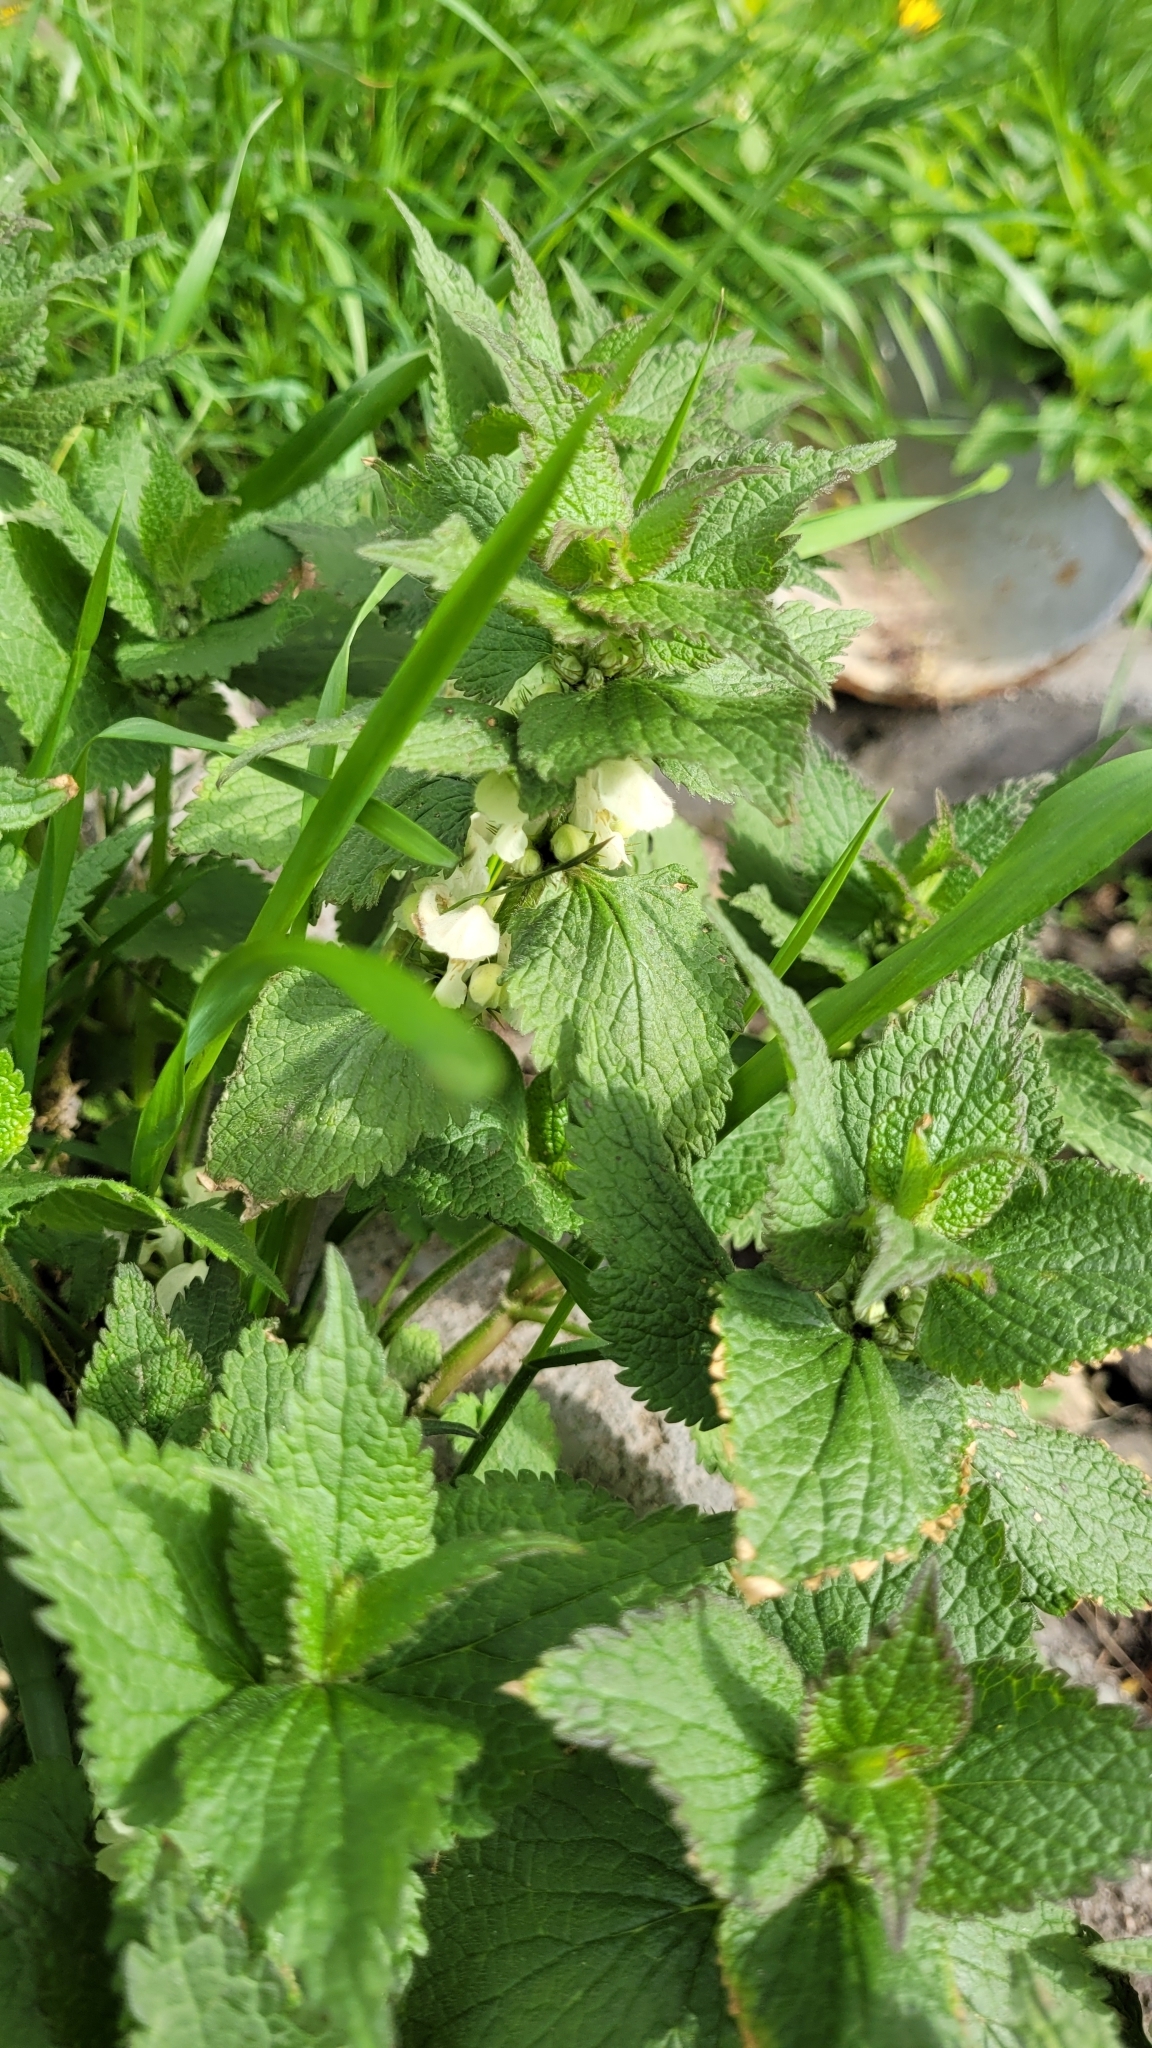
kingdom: Plantae
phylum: Tracheophyta
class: Magnoliopsida
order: Lamiales
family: Lamiaceae
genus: Lamium
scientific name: Lamium album
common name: White dead-nettle
